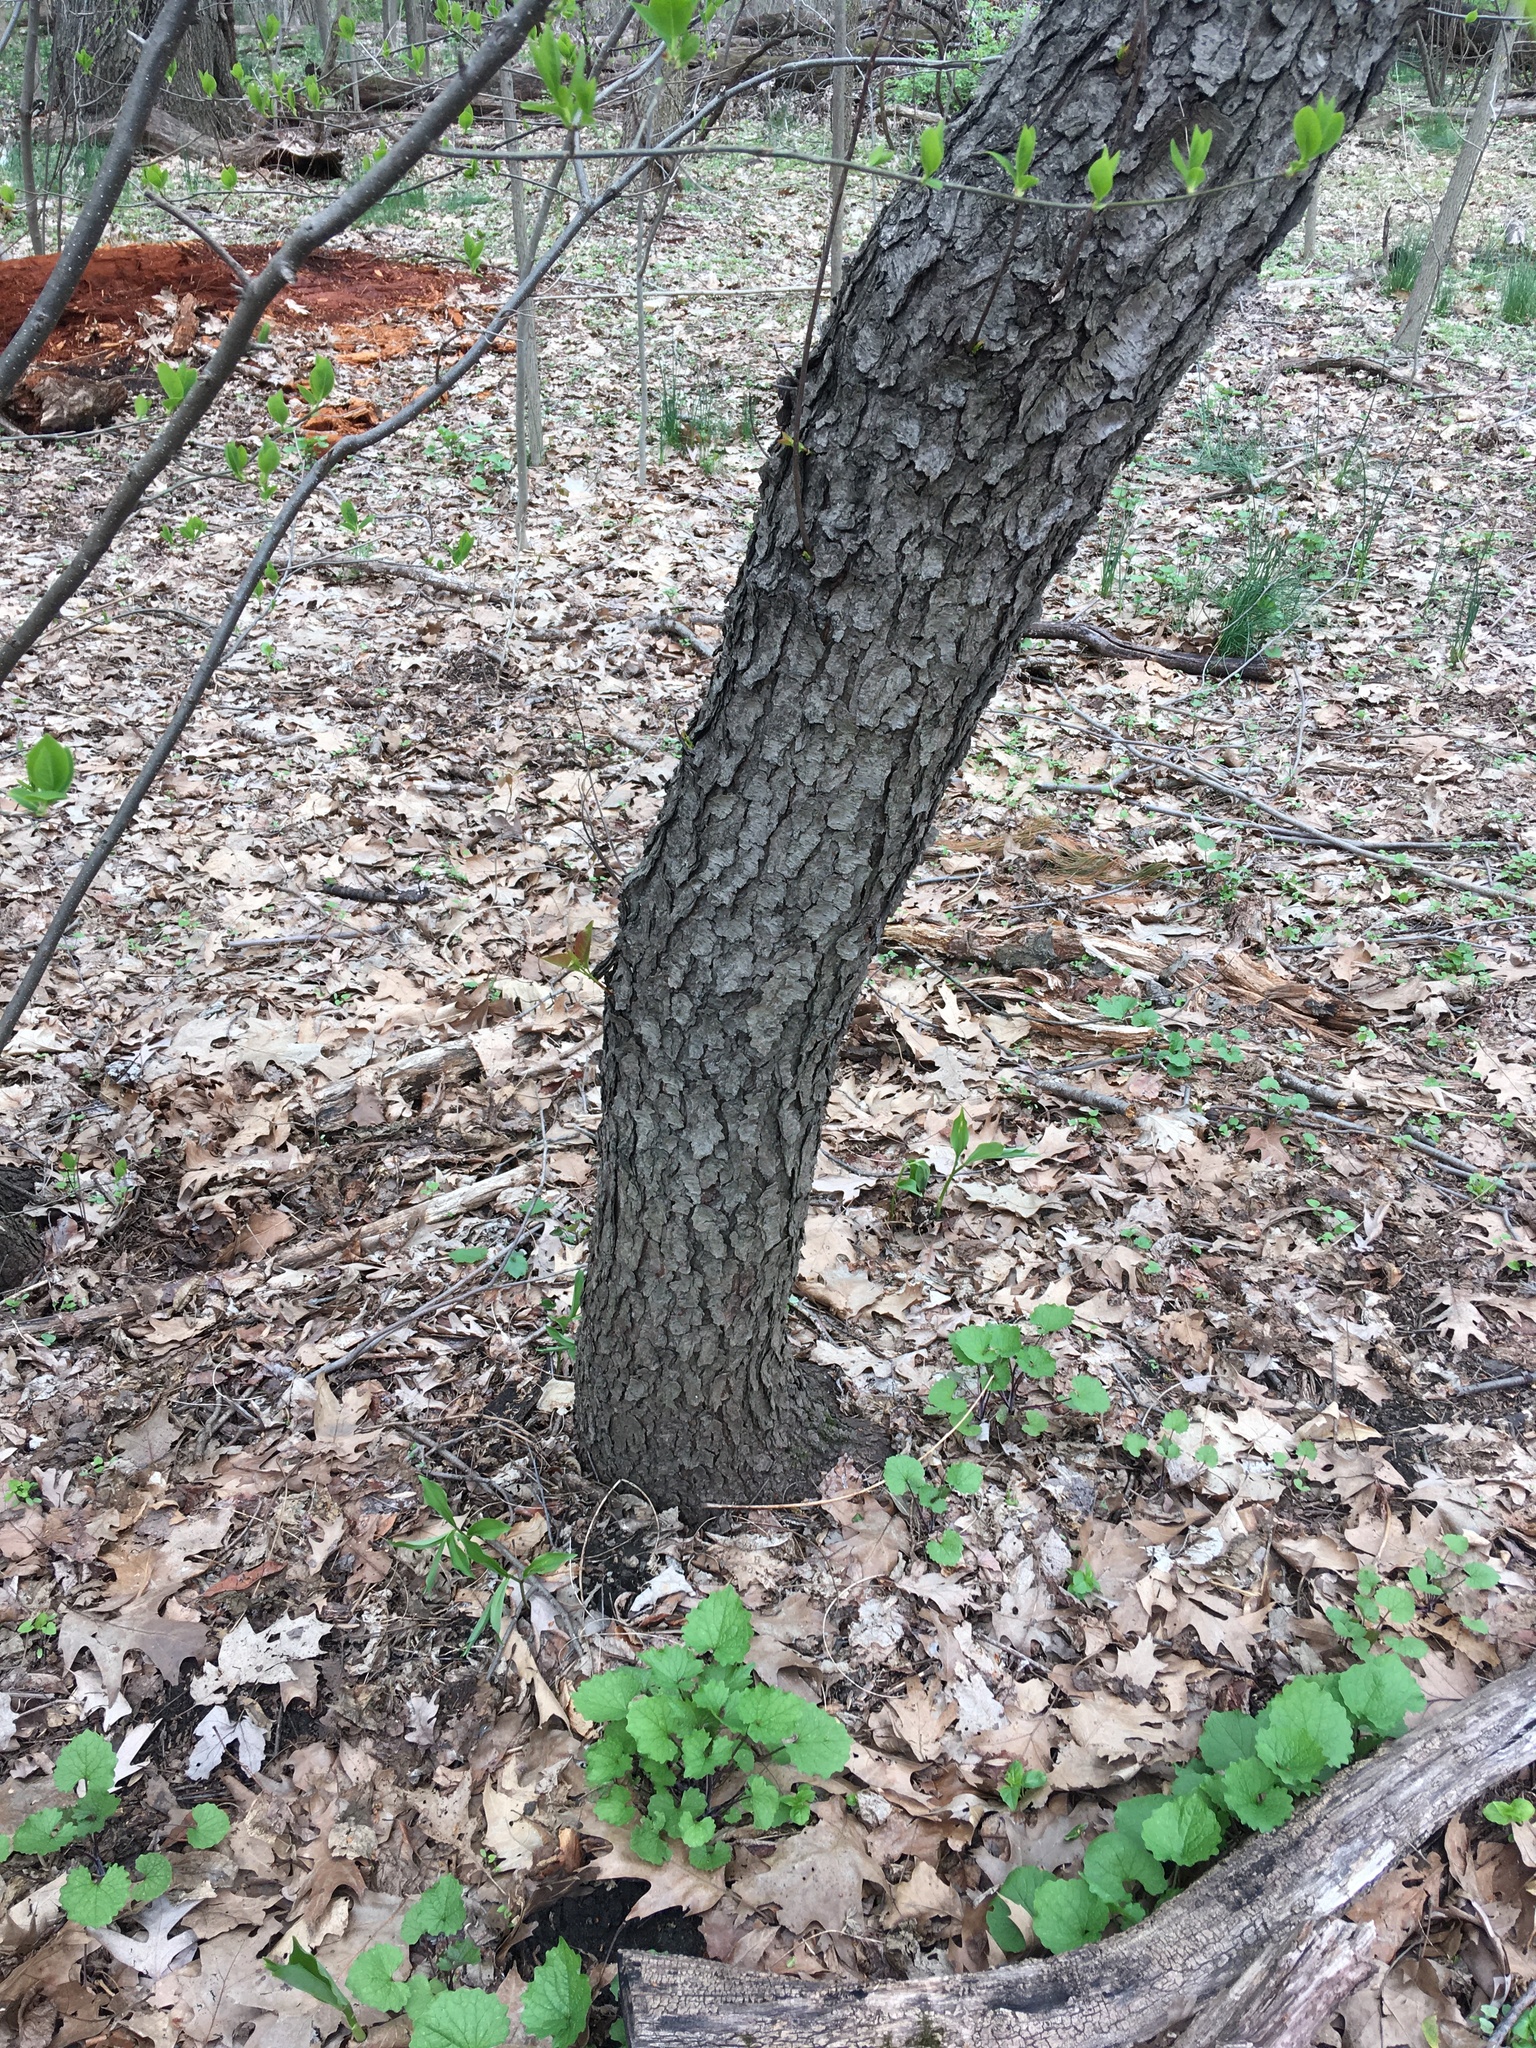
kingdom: Plantae
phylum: Tracheophyta
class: Magnoliopsida
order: Rosales
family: Rosaceae
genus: Prunus
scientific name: Prunus serotina
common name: Black cherry
